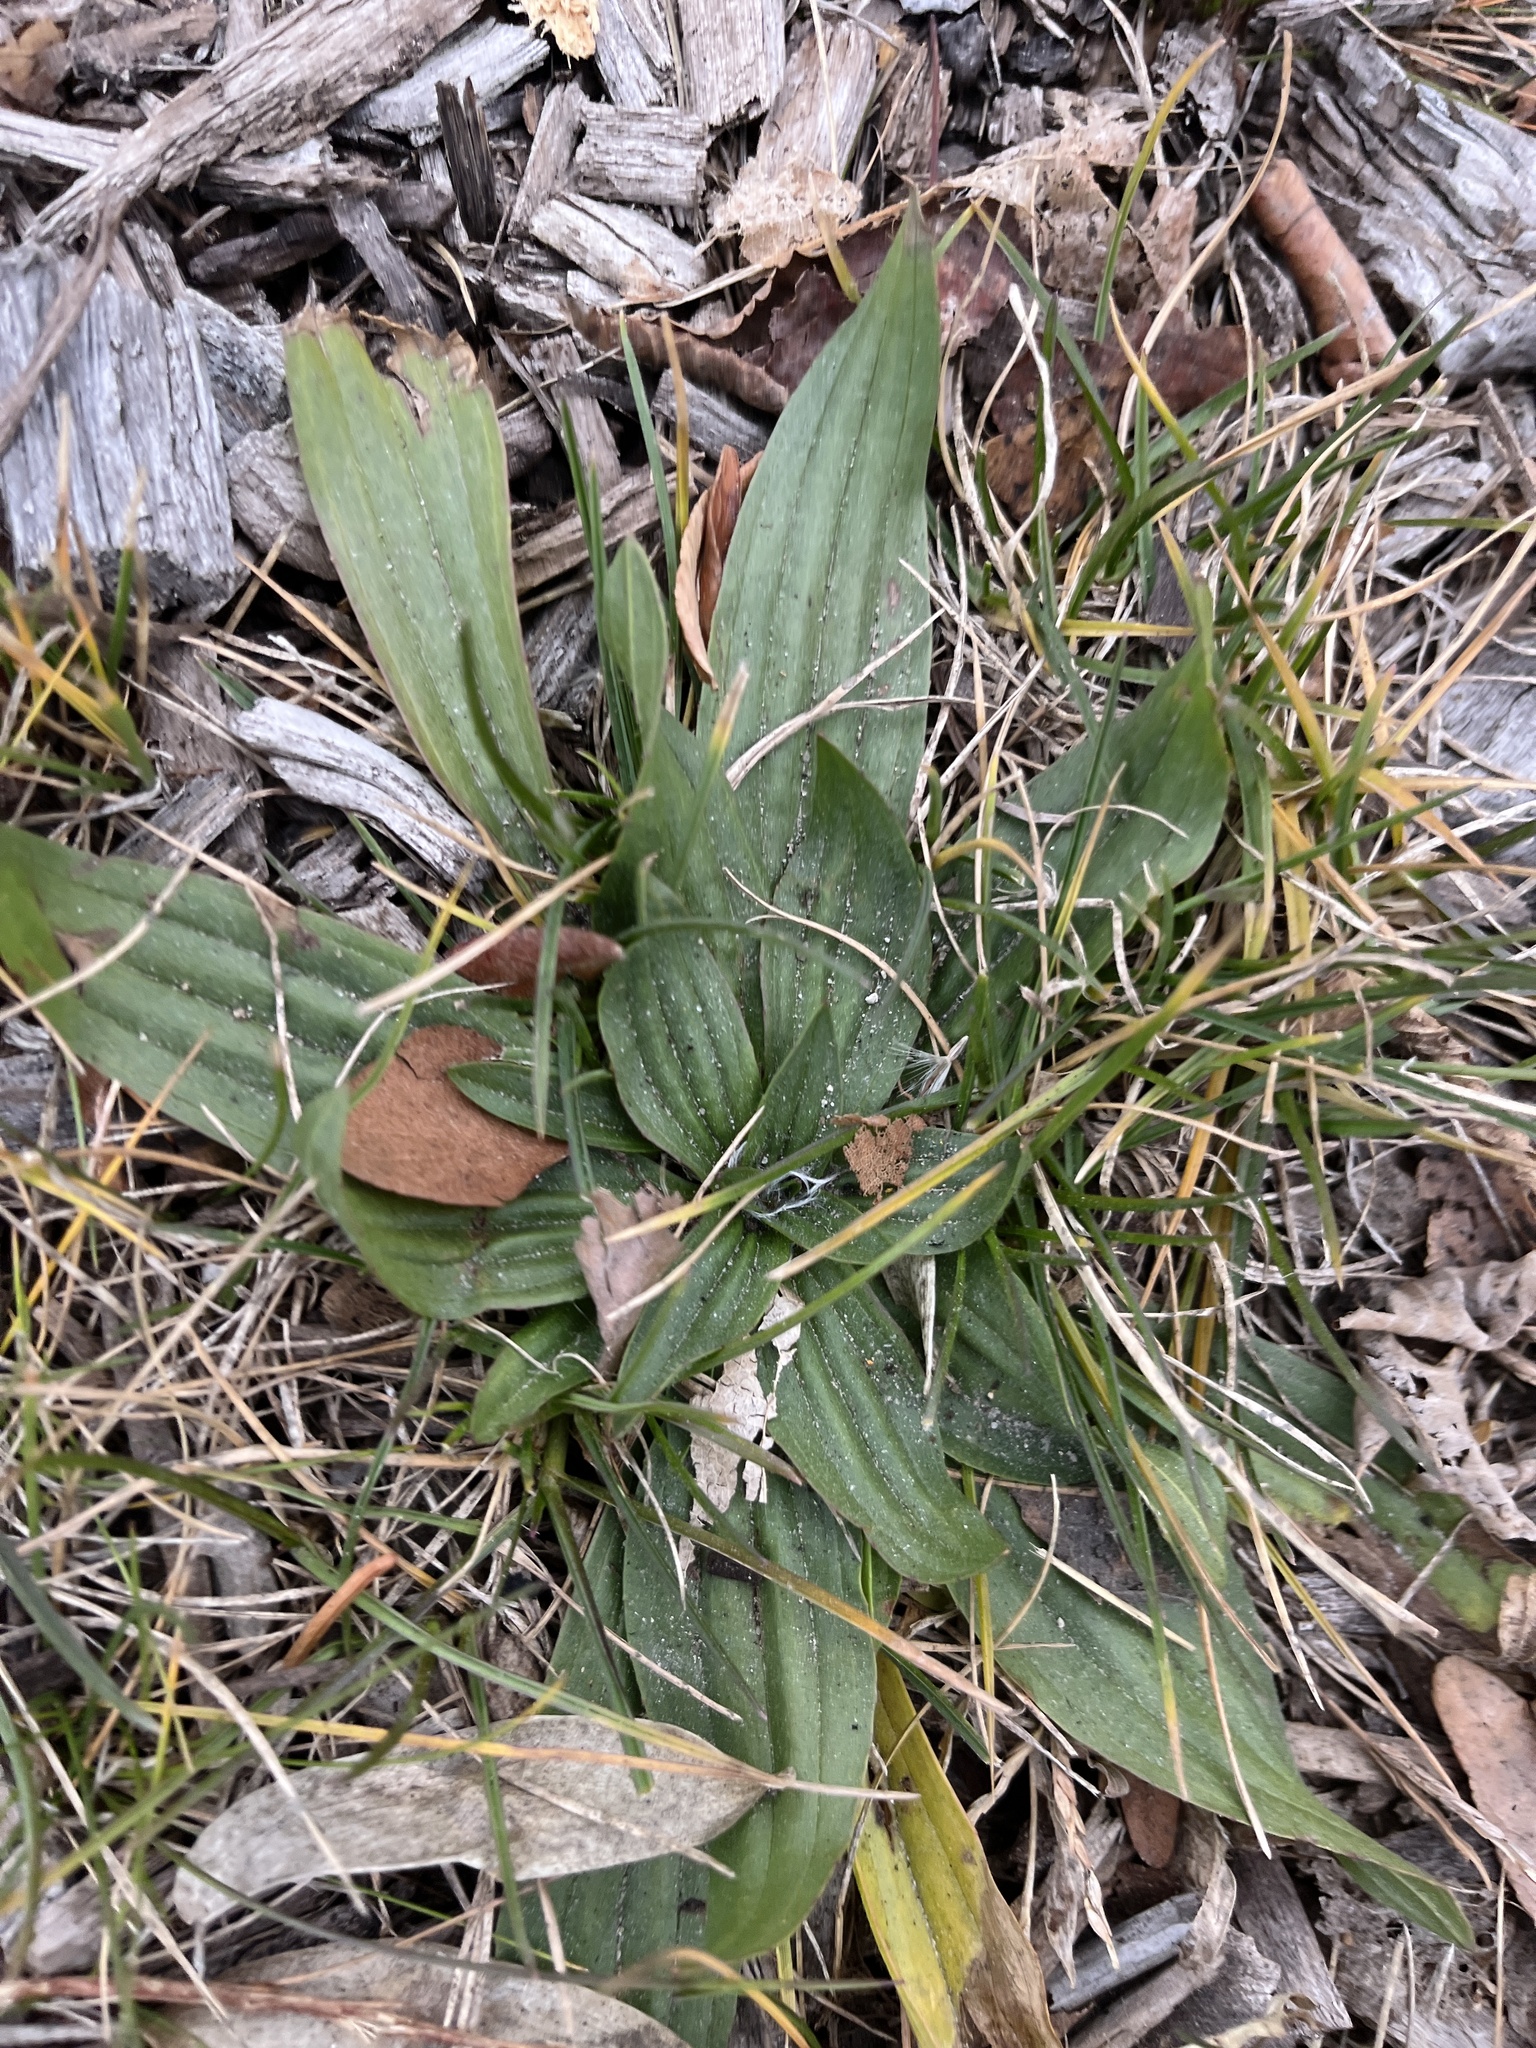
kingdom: Plantae
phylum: Tracheophyta
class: Magnoliopsida
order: Lamiales
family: Plantaginaceae
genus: Plantago
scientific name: Plantago lanceolata
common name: Ribwort plantain
